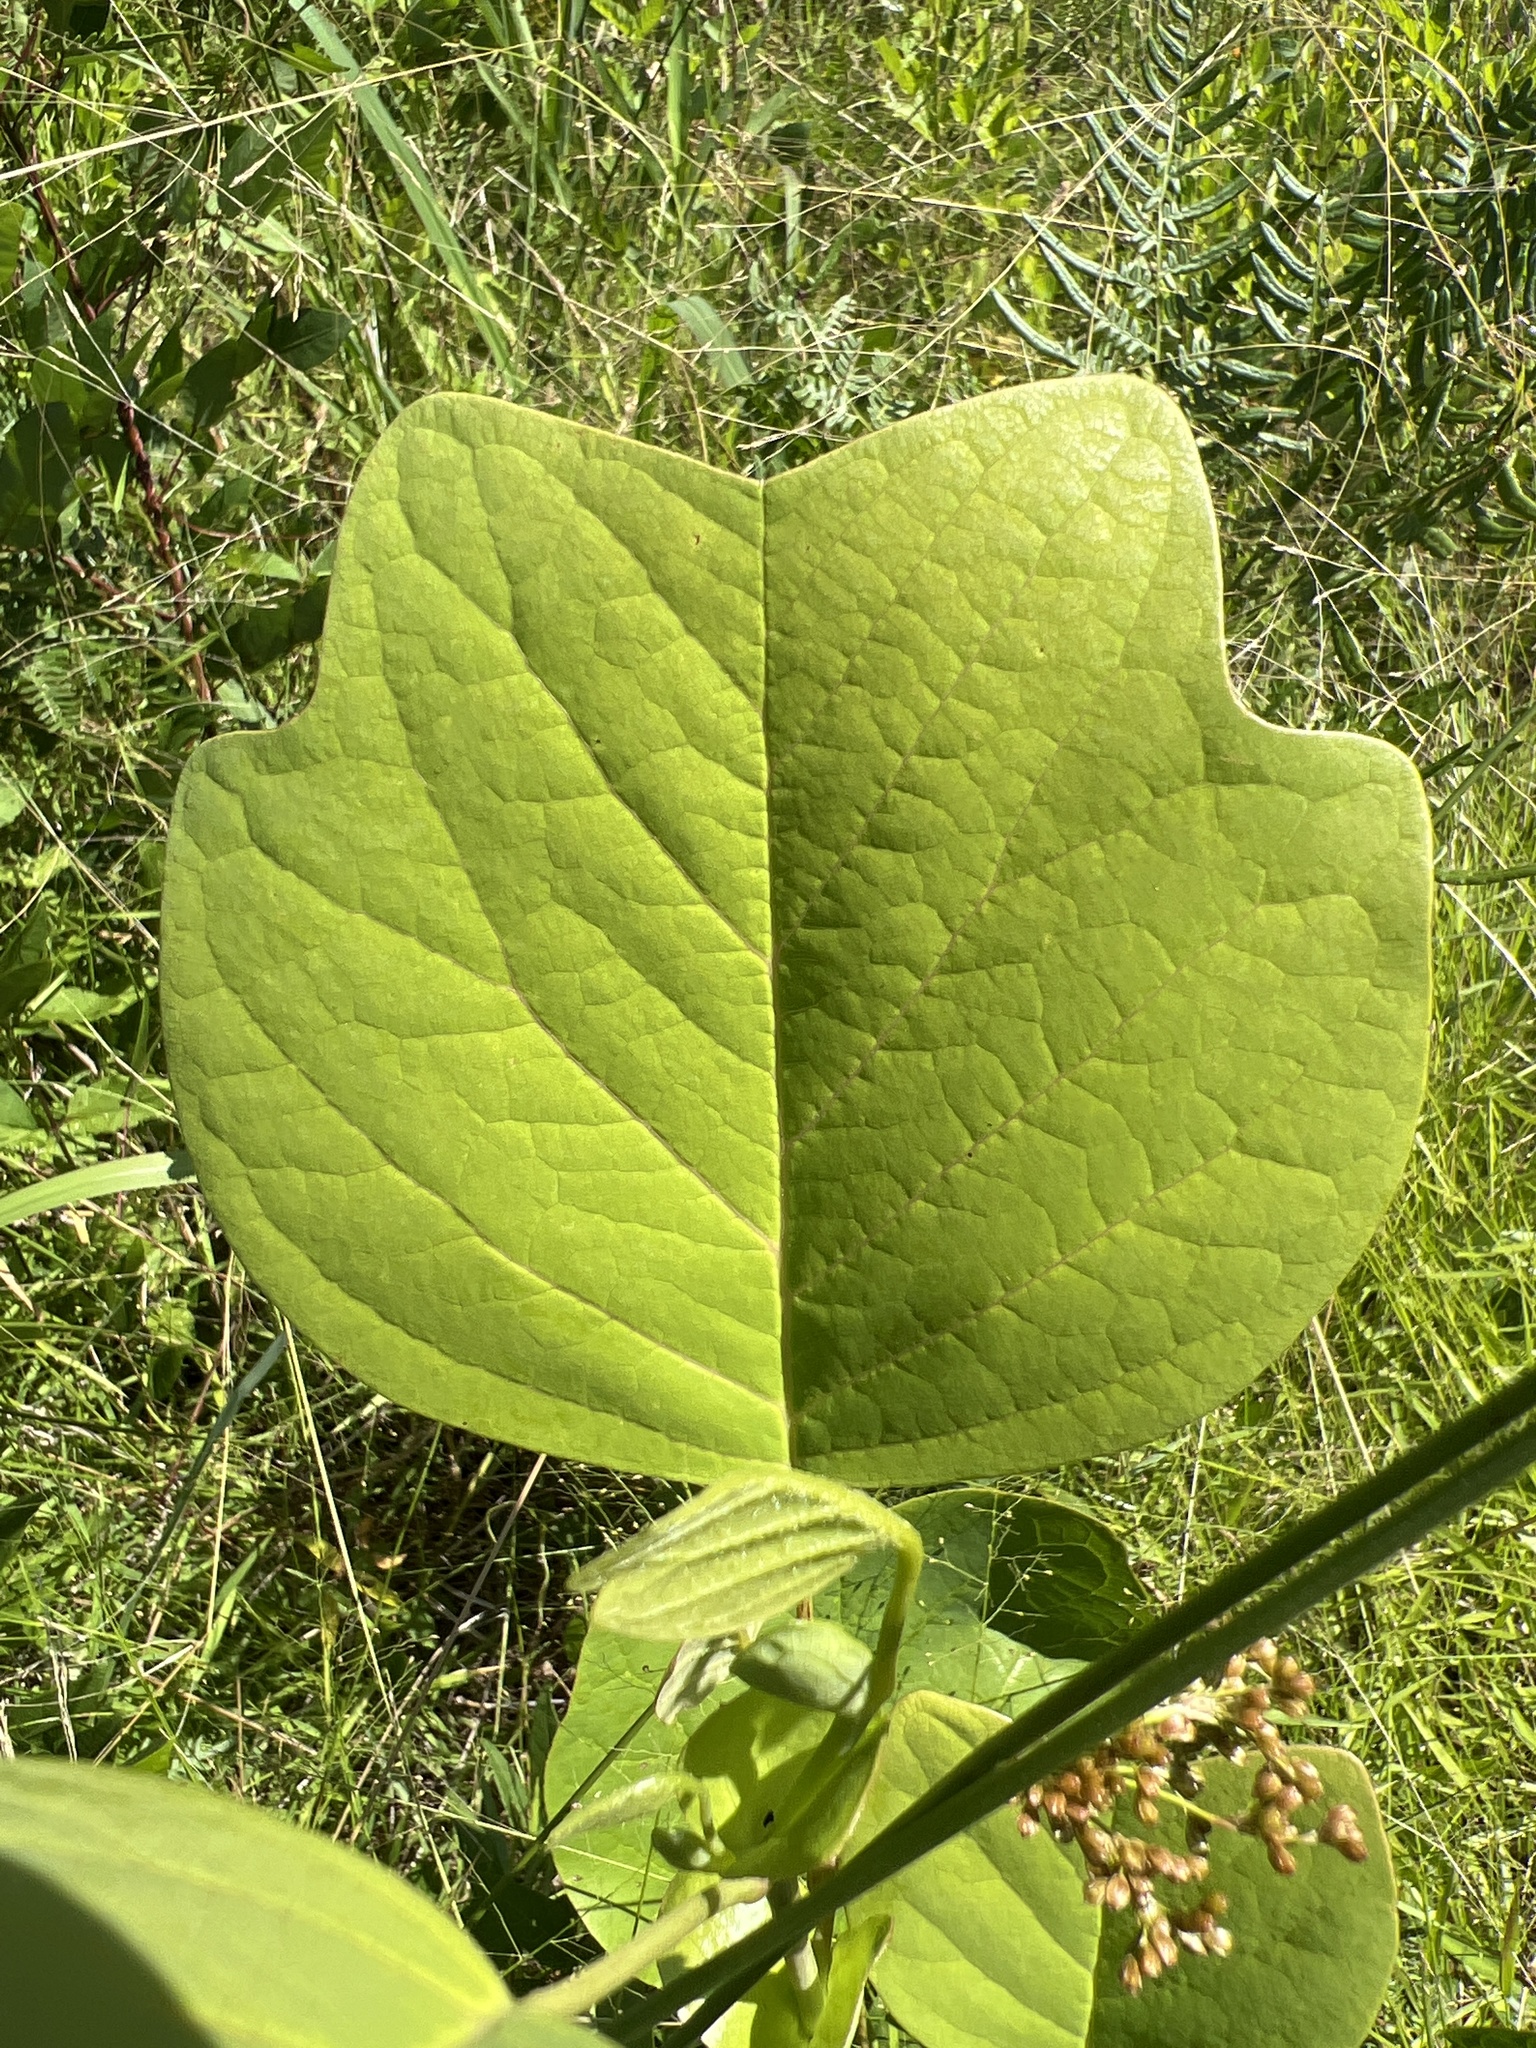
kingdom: Plantae
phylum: Tracheophyta
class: Magnoliopsida
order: Magnoliales
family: Magnoliaceae
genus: Liriodendron
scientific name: Liriodendron tulipifera
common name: Tulip tree
